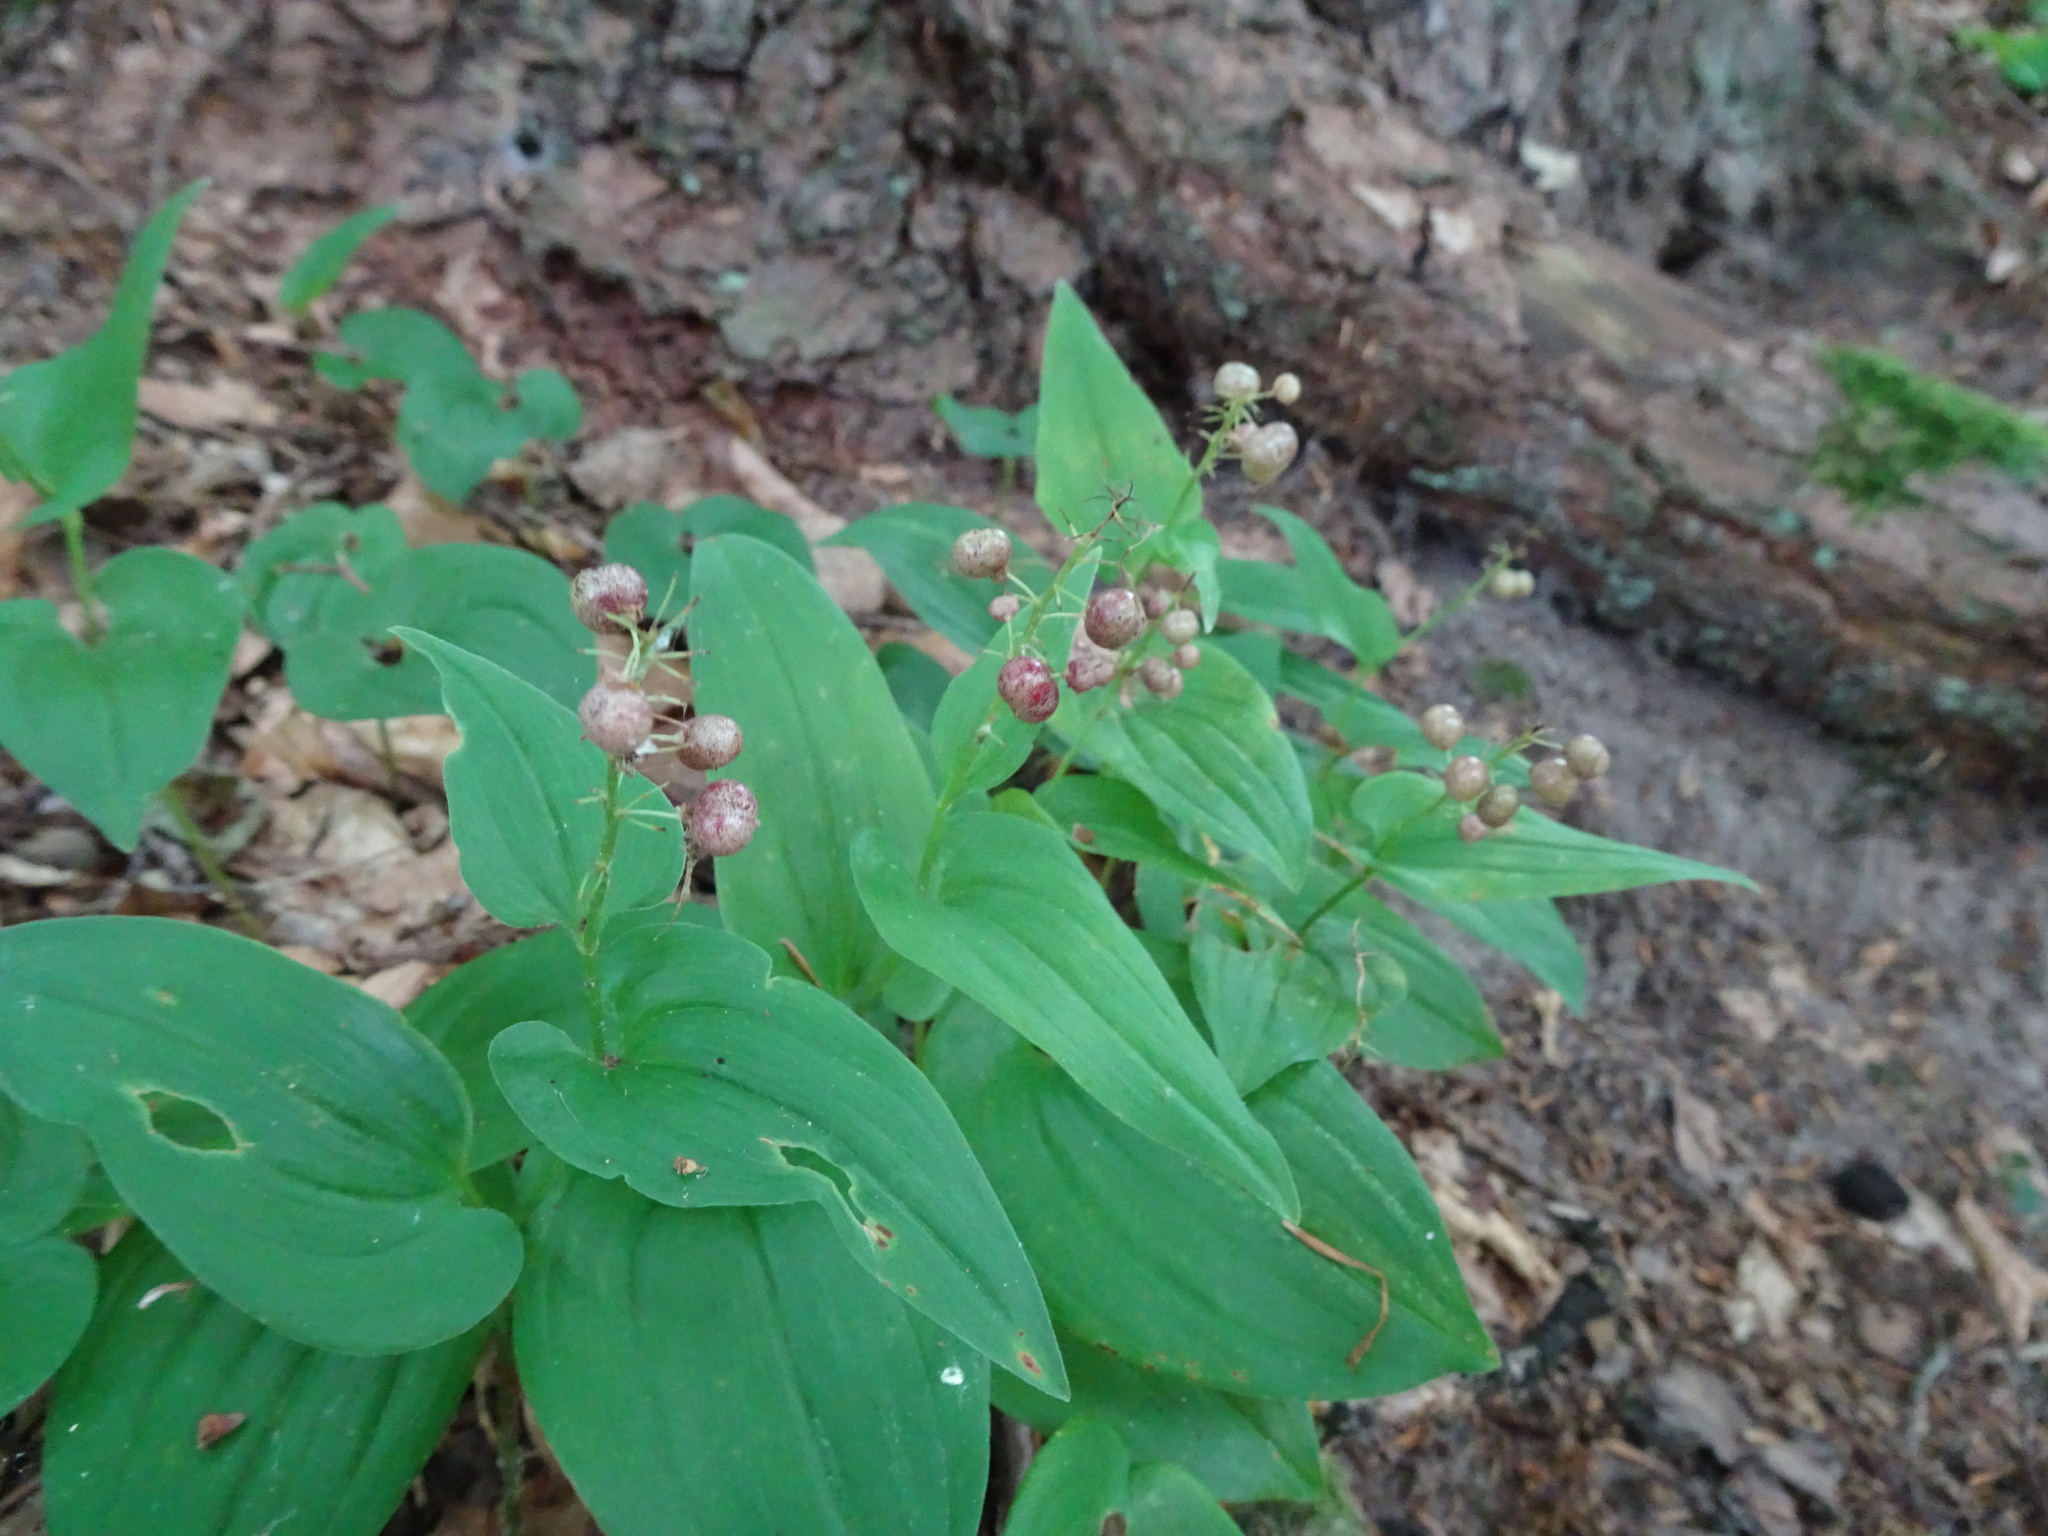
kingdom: Plantae
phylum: Tracheophyta
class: Liliopsida
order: Asparagales
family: Asparagaceae
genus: Maianthemum
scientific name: Maianthemum bifolium
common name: May lily
